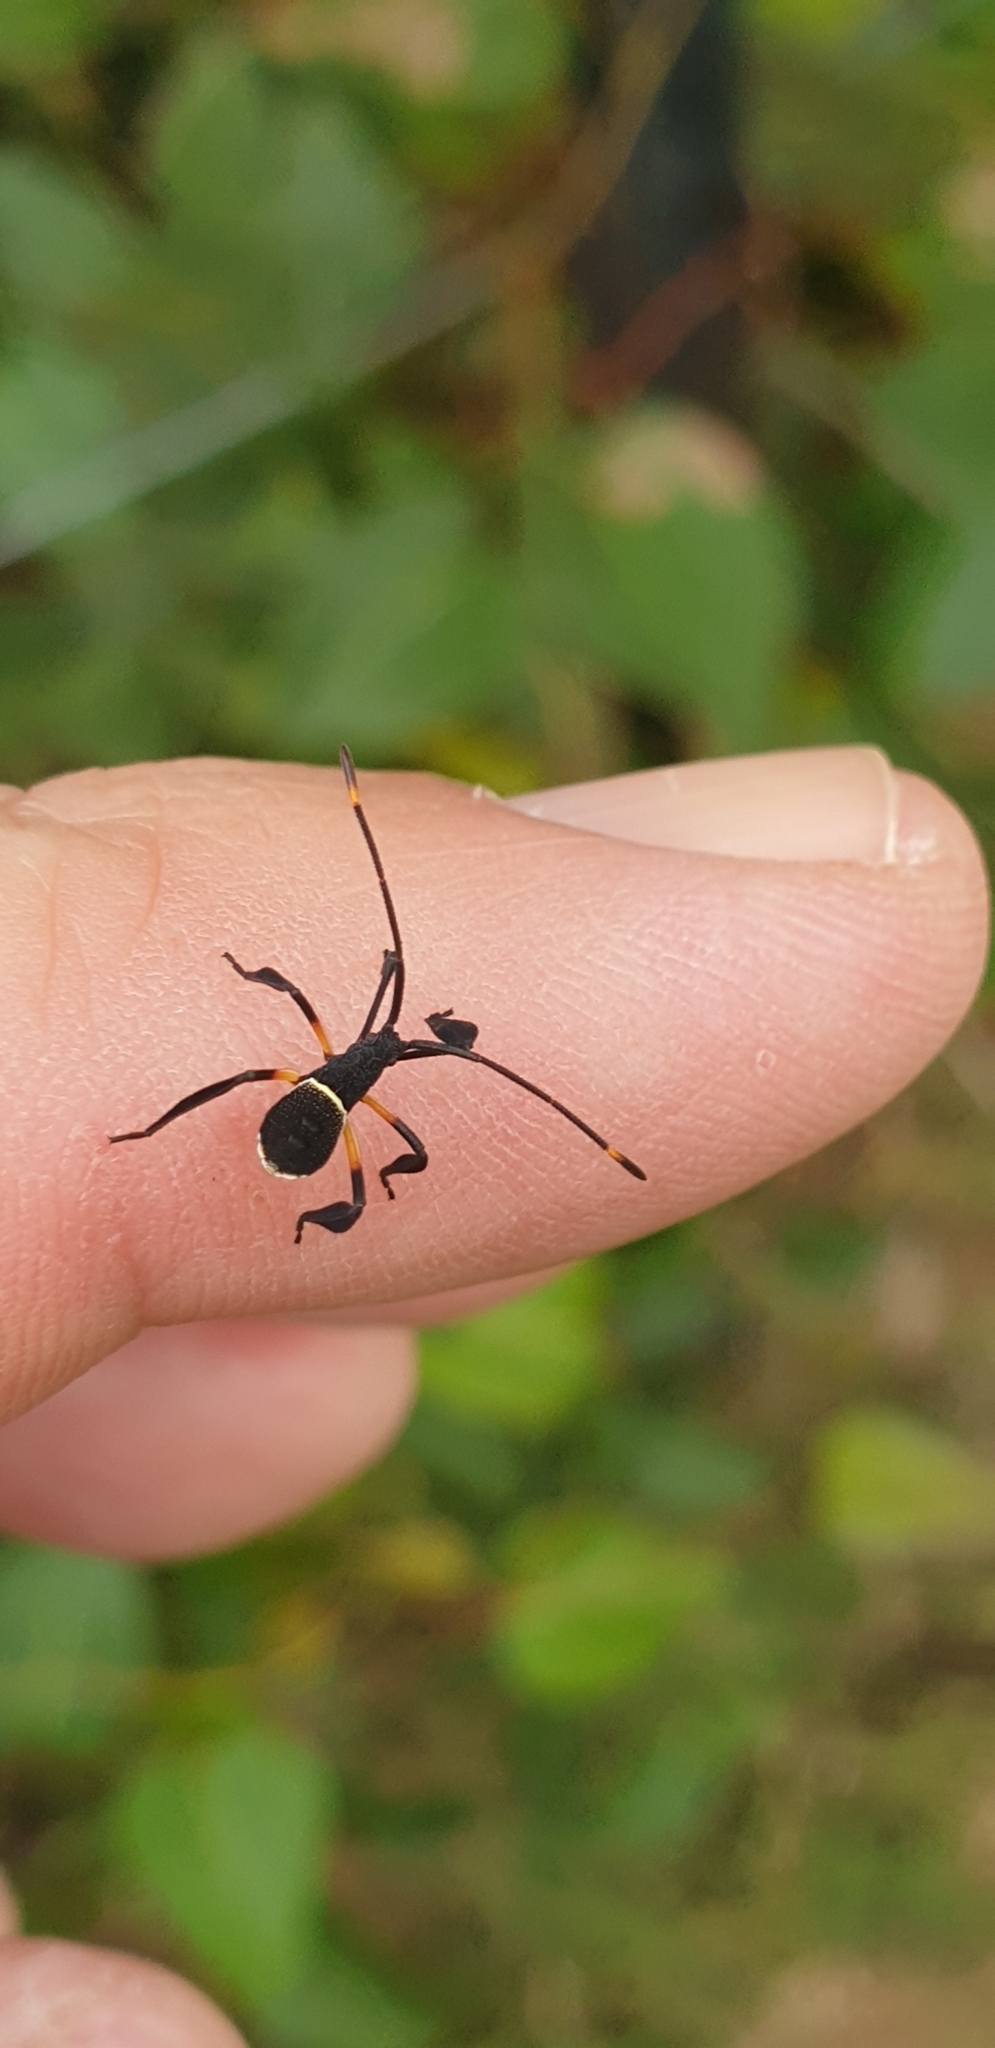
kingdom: Animalia
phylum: Arthropoda
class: Insecta
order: Hemiptera
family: Coreidae
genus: Mictis
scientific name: Mictis profana
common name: Crusader bug
